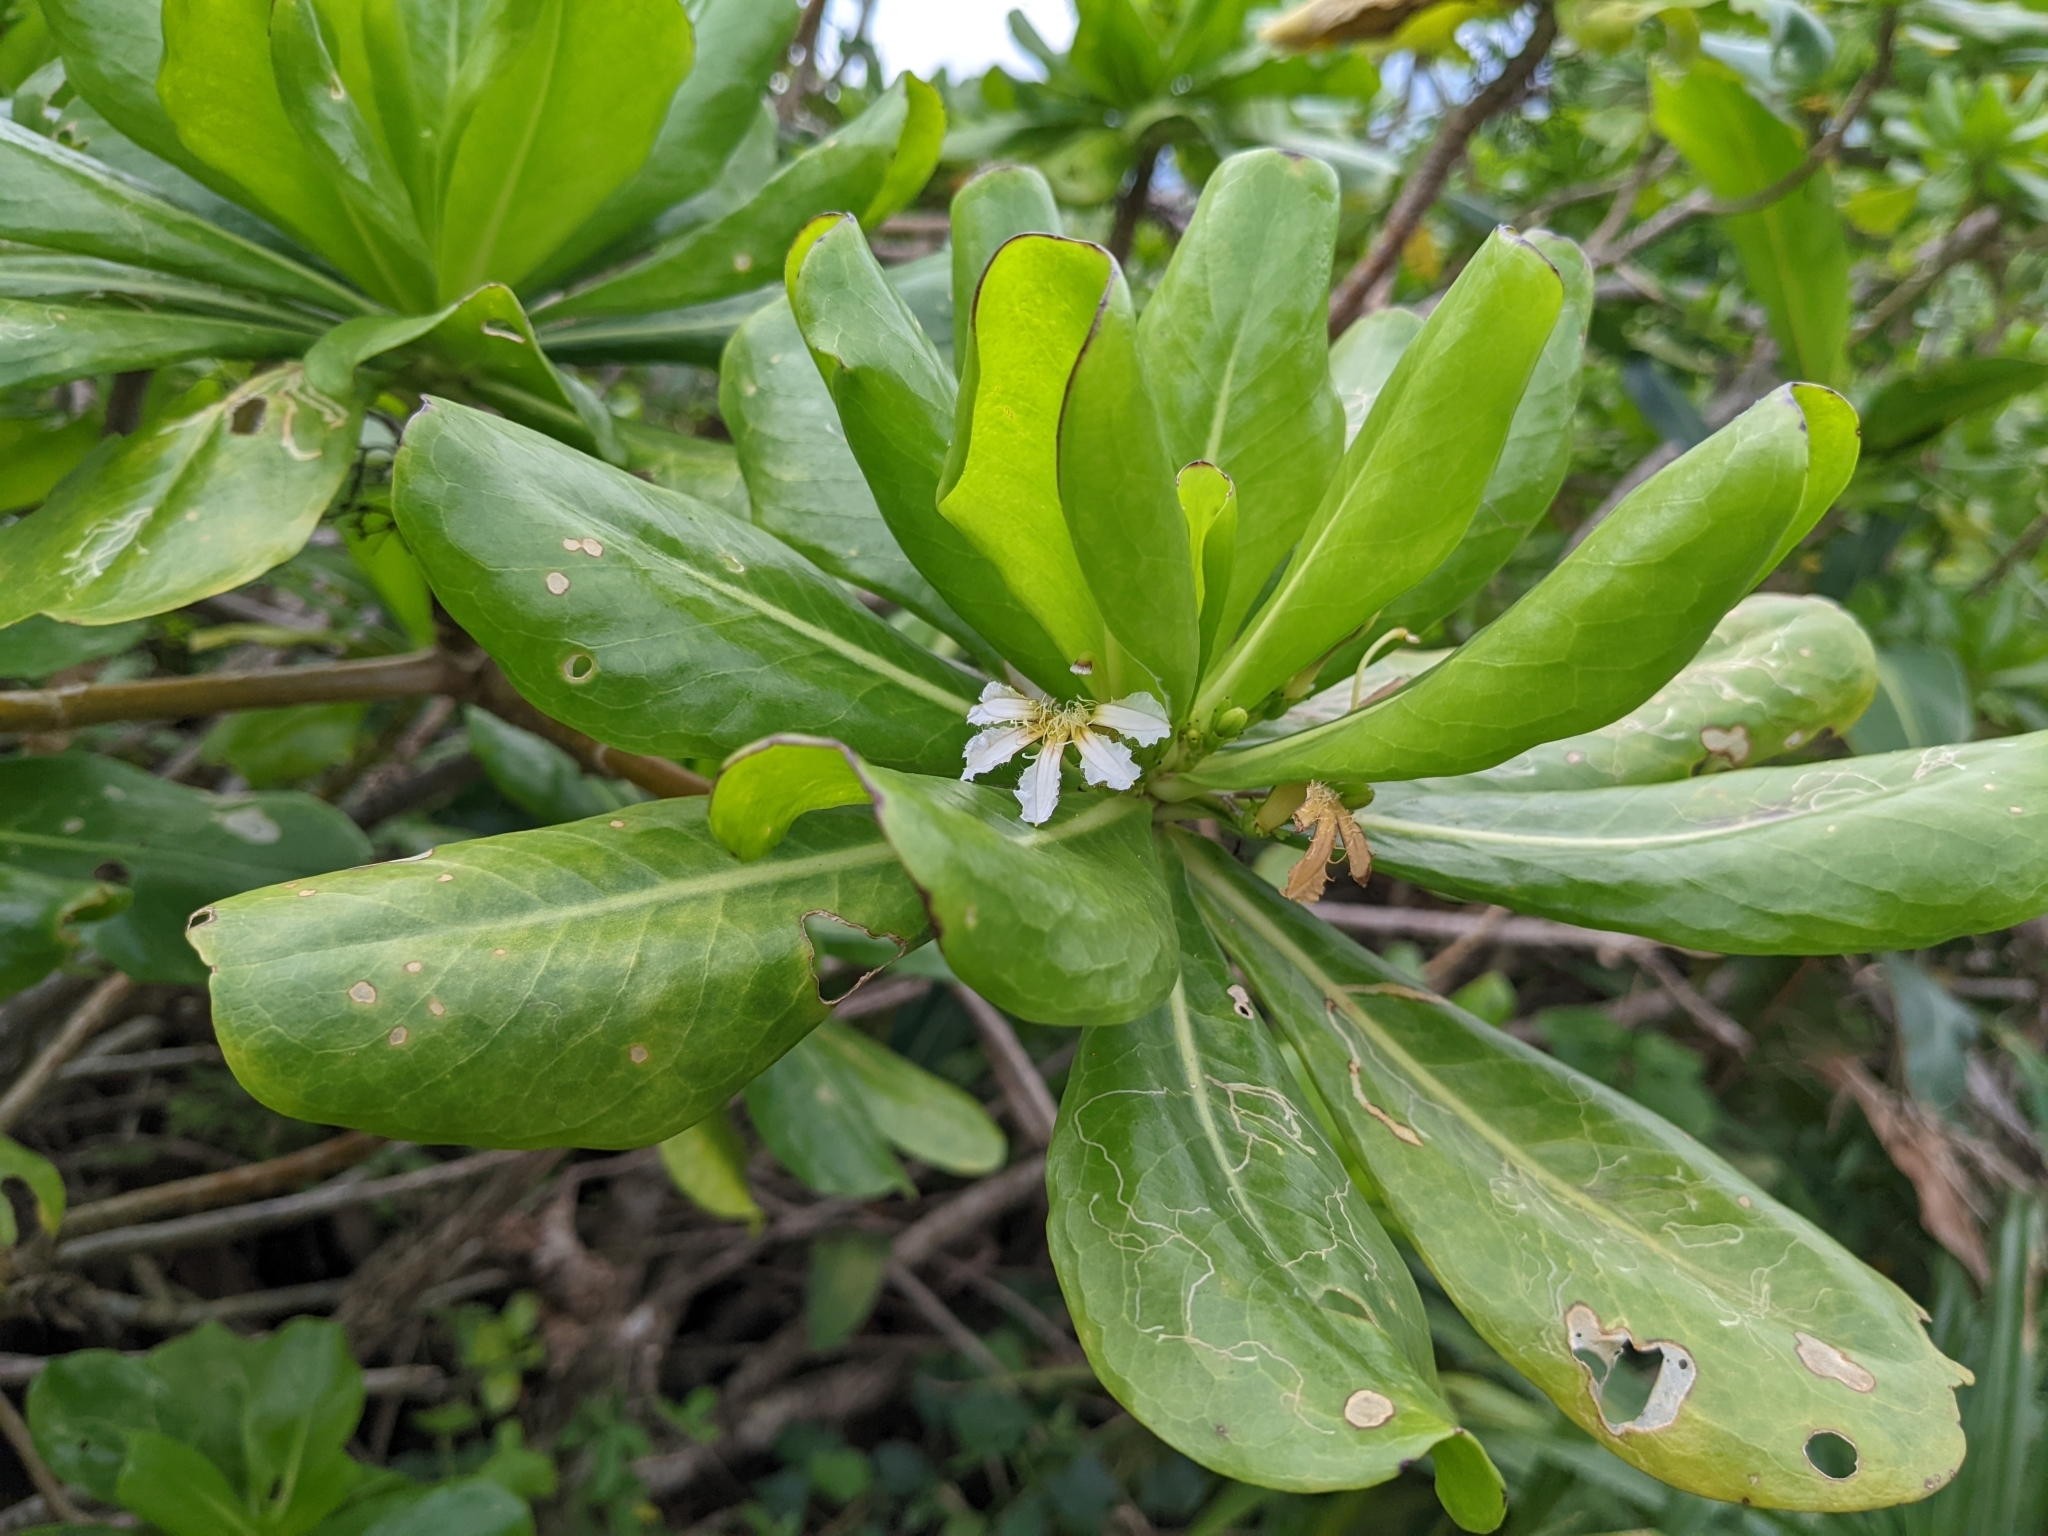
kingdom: Plantae
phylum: Tracheophyta
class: Magnoliopsida
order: Asterales
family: Goodeniaceae
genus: Scaevola
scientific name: Scaevola taccada
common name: Sea lettucetree
